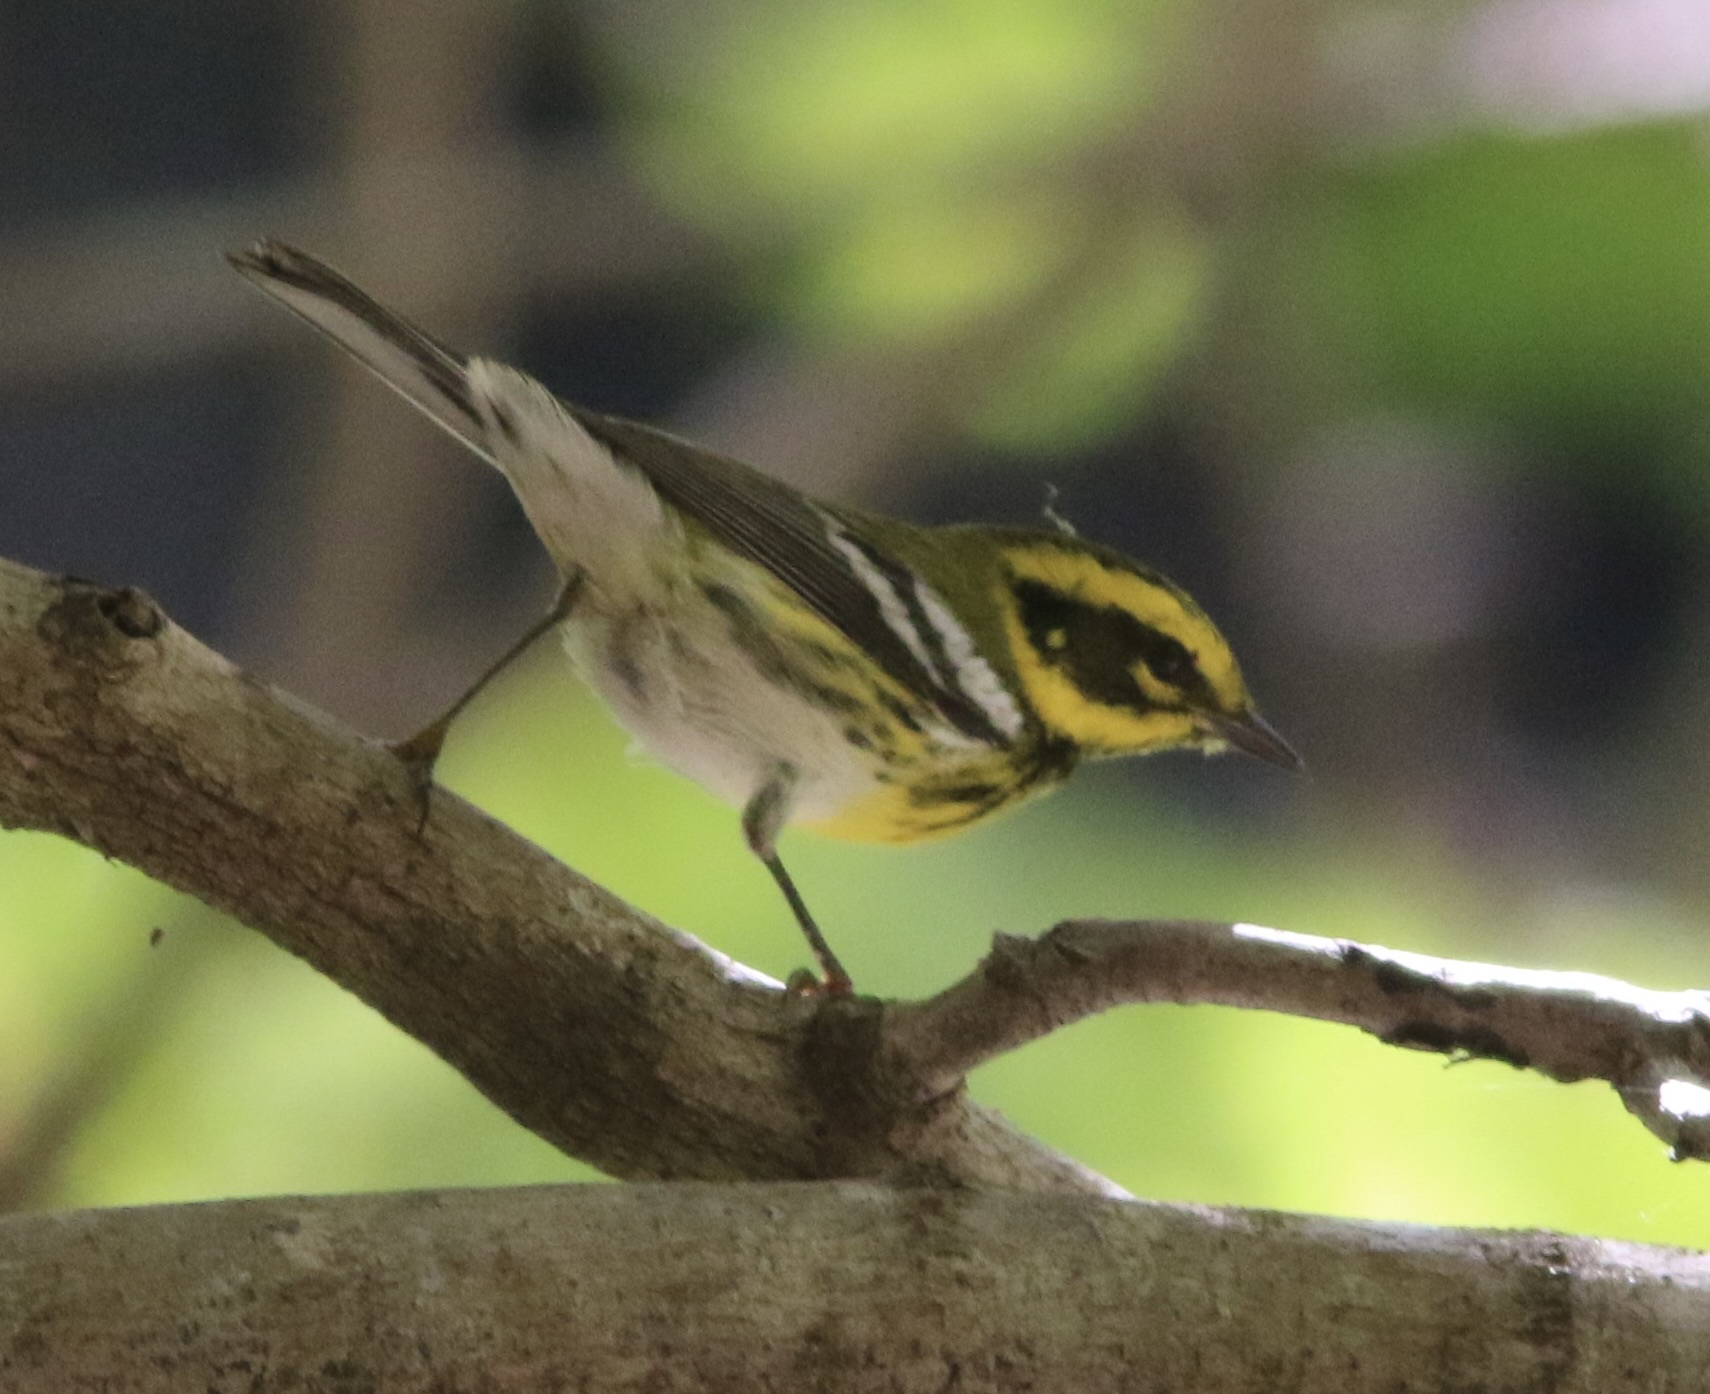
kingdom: Animalia
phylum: Chordata
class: Aves
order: Passeriformes
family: Parulidae
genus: Setophaga
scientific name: Setophaga townsendi
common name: Townsend's warbler
